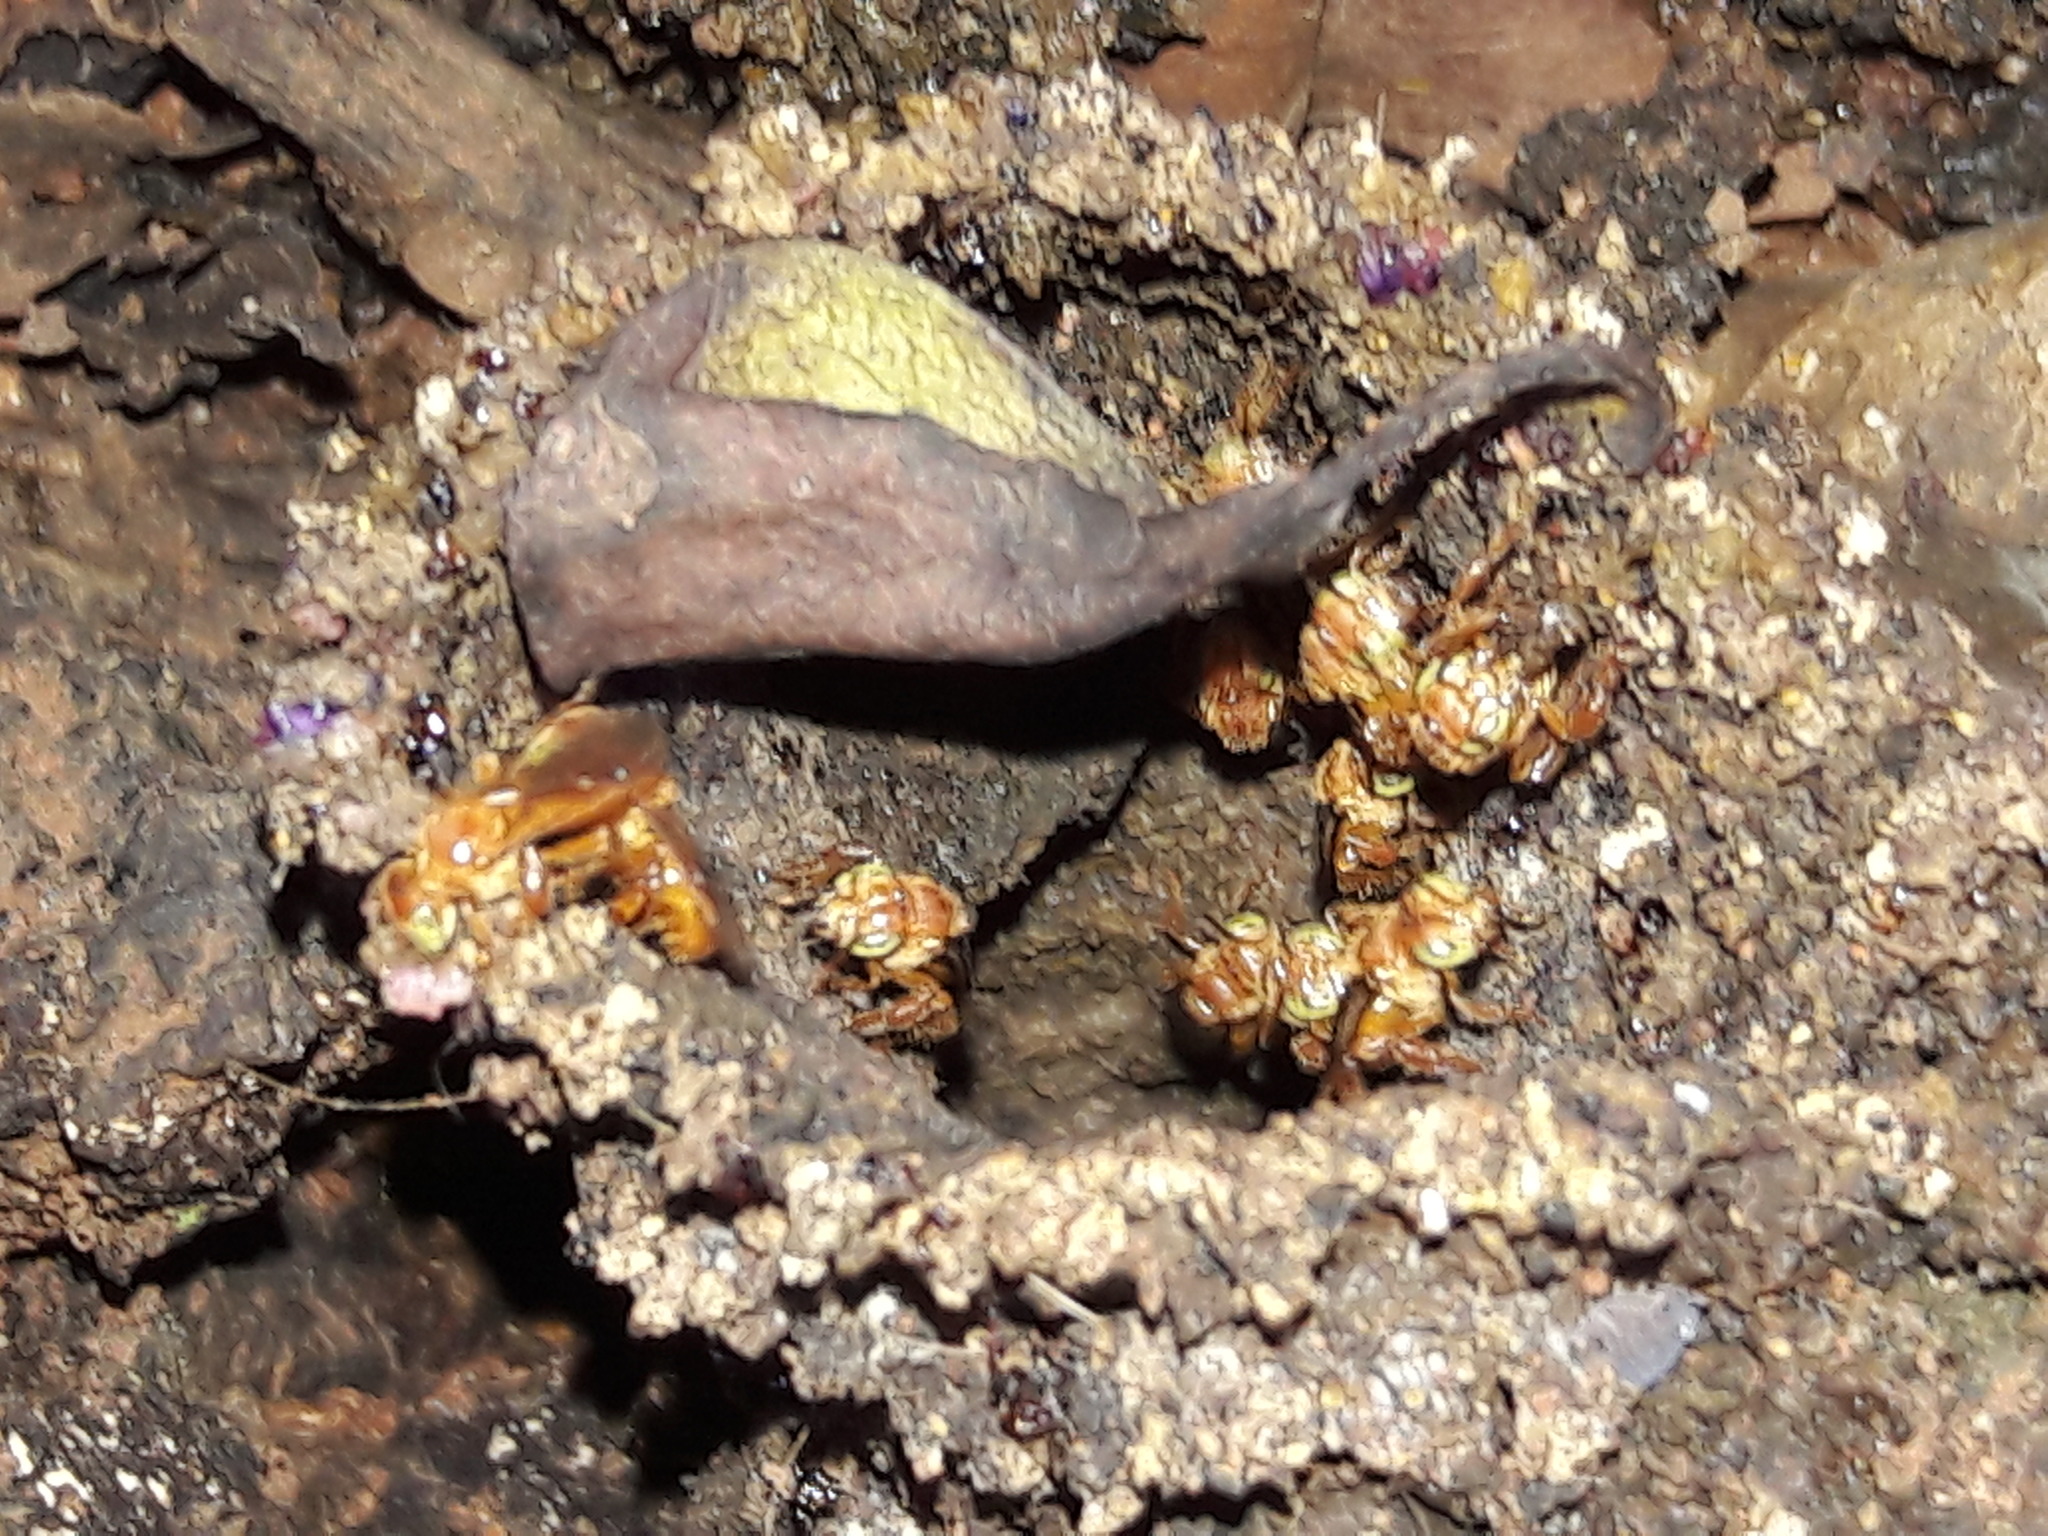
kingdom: Animalia
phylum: Arthropoda
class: Insecta
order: Hymenoptera
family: Apidae
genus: Trigona
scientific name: Trigona pallens
